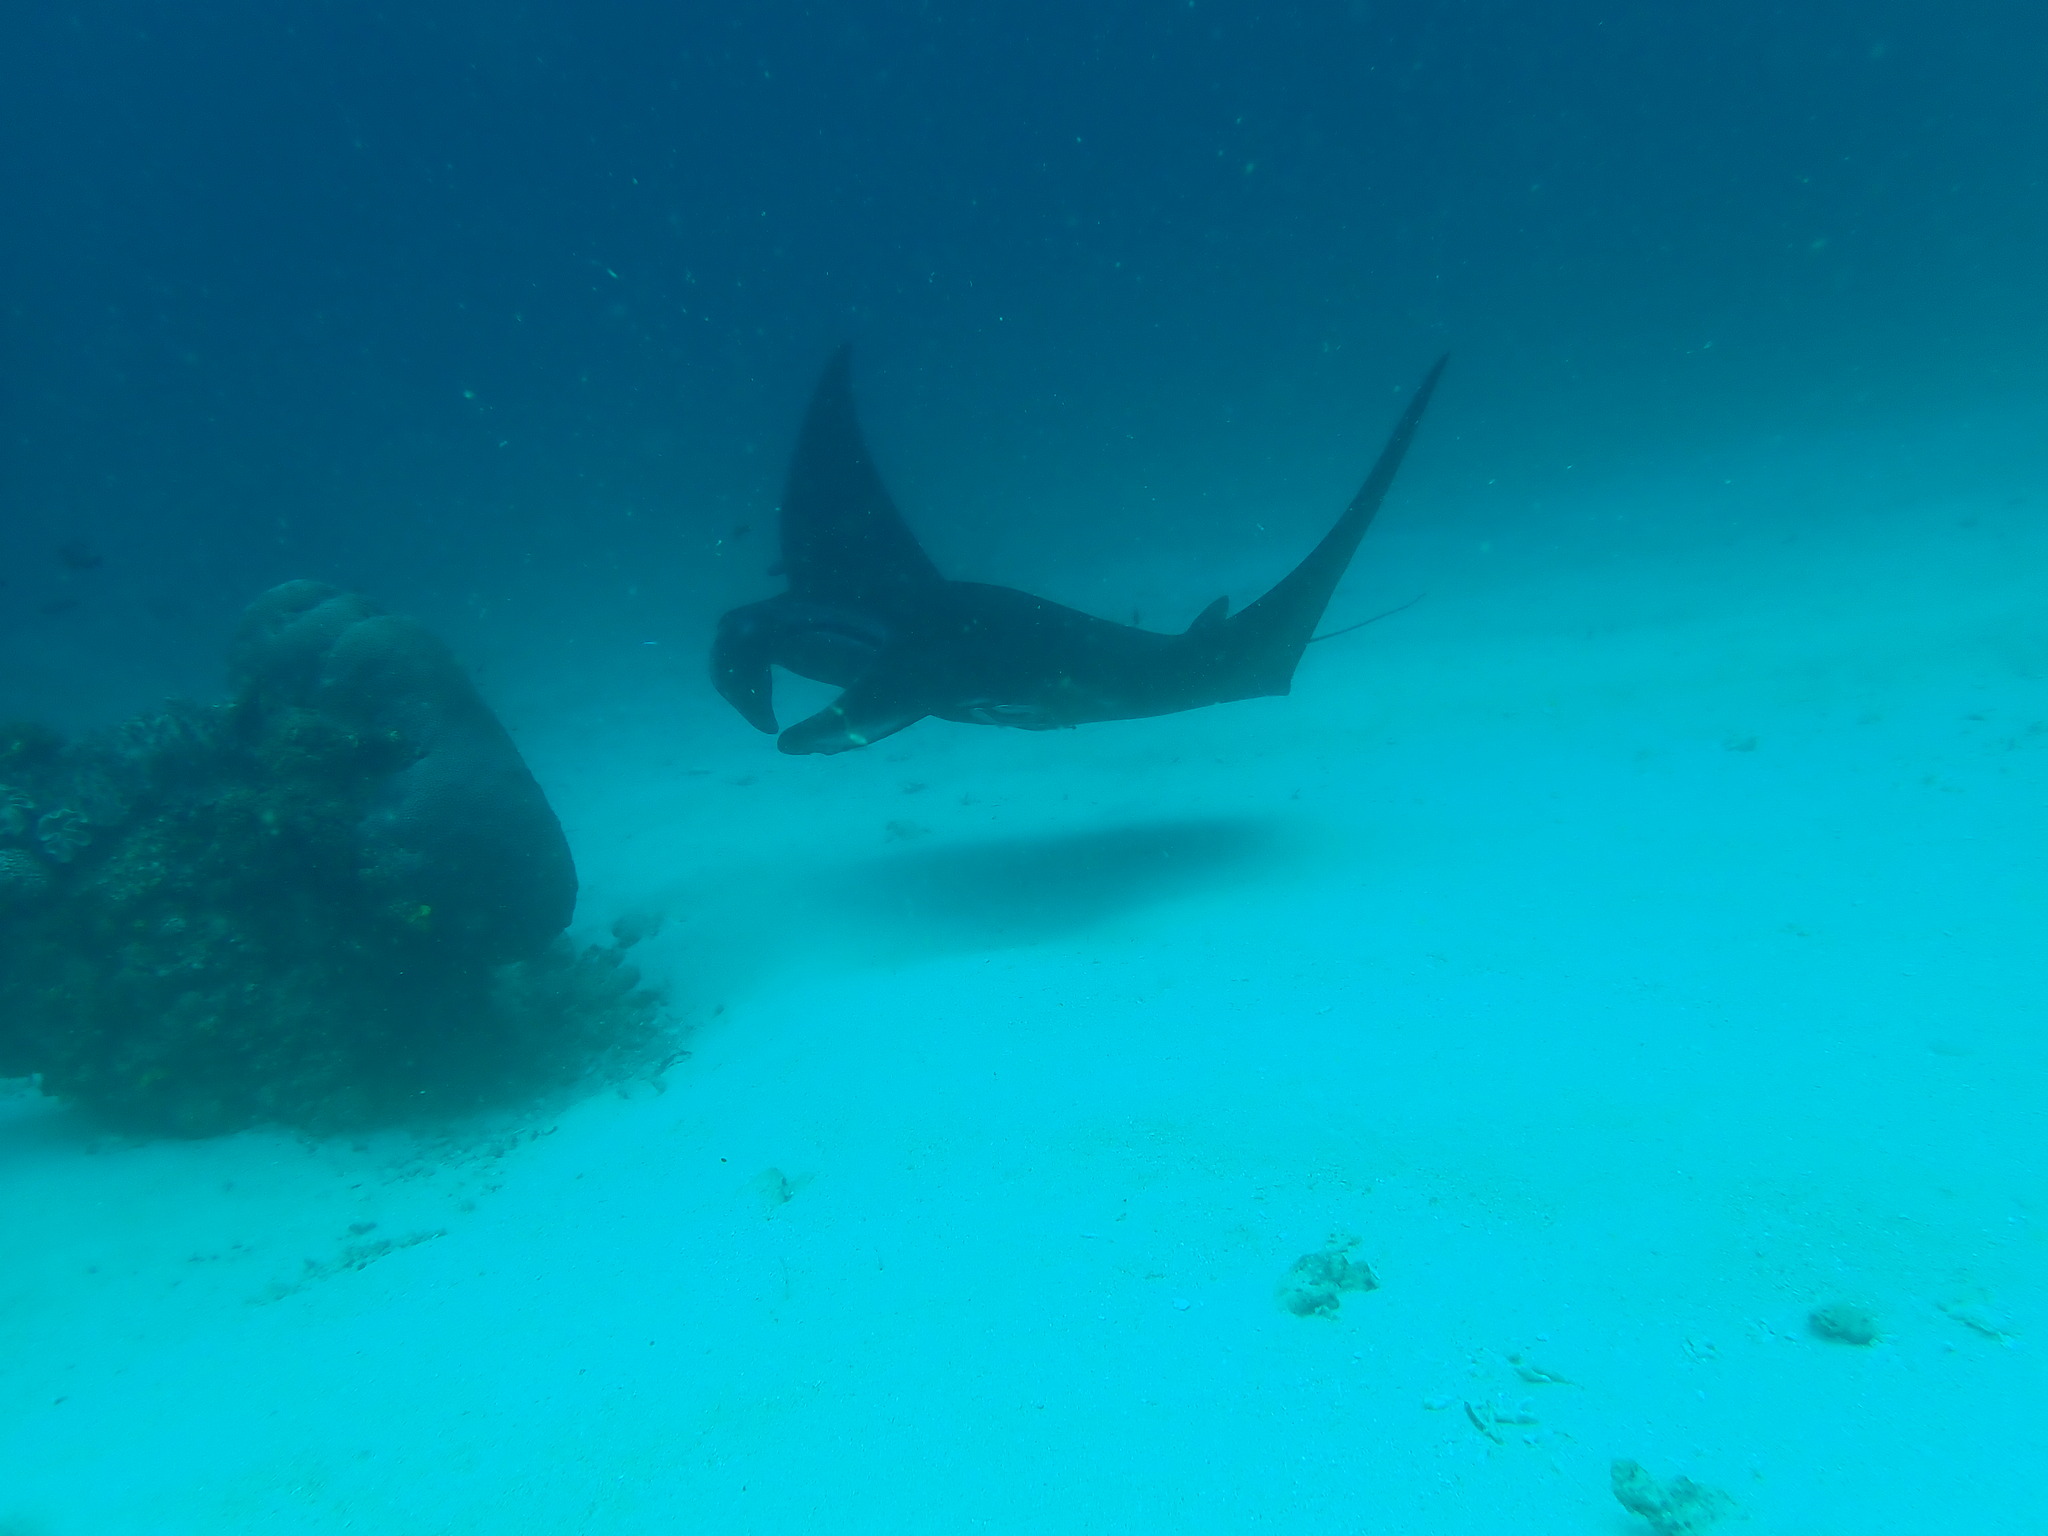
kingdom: Animalia
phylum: Chordata
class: Elasmobranchii
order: Myliobatiformes
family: Myliobatidae
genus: Mobula
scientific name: Mobula alfredi
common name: Reef manta ray
